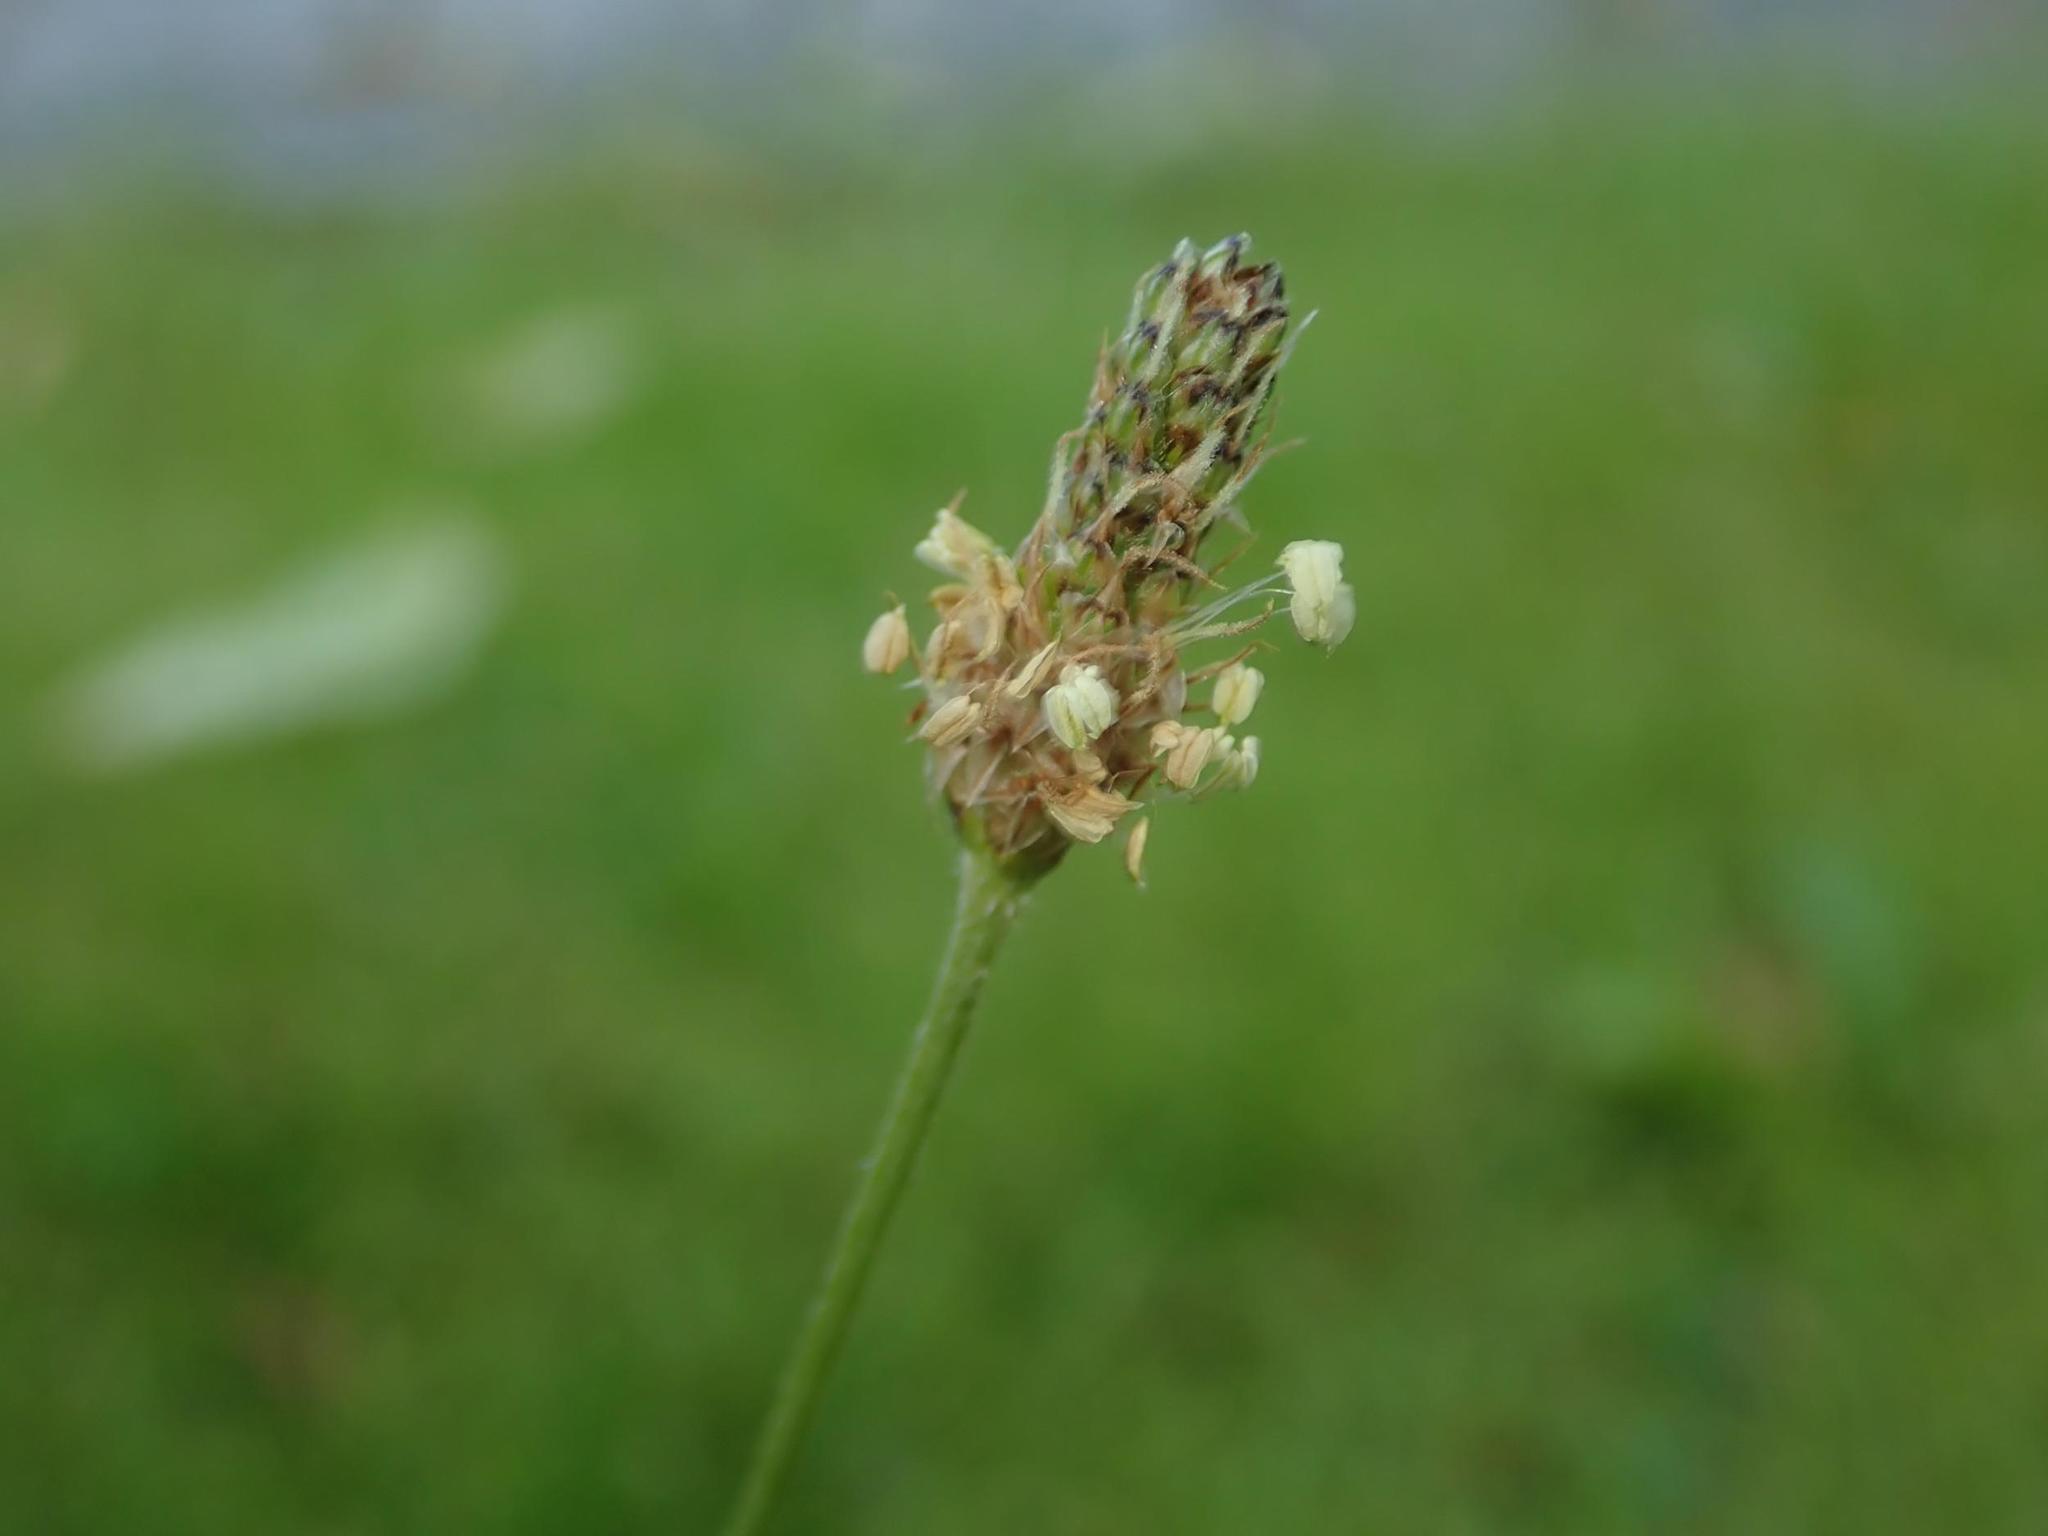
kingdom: Plantae
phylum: Tracheophyta
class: Magnoliopsida
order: Lamiales
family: Plantaginaceae
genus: Plantago
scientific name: Plantago lanceolata
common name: Ribwort plantain
